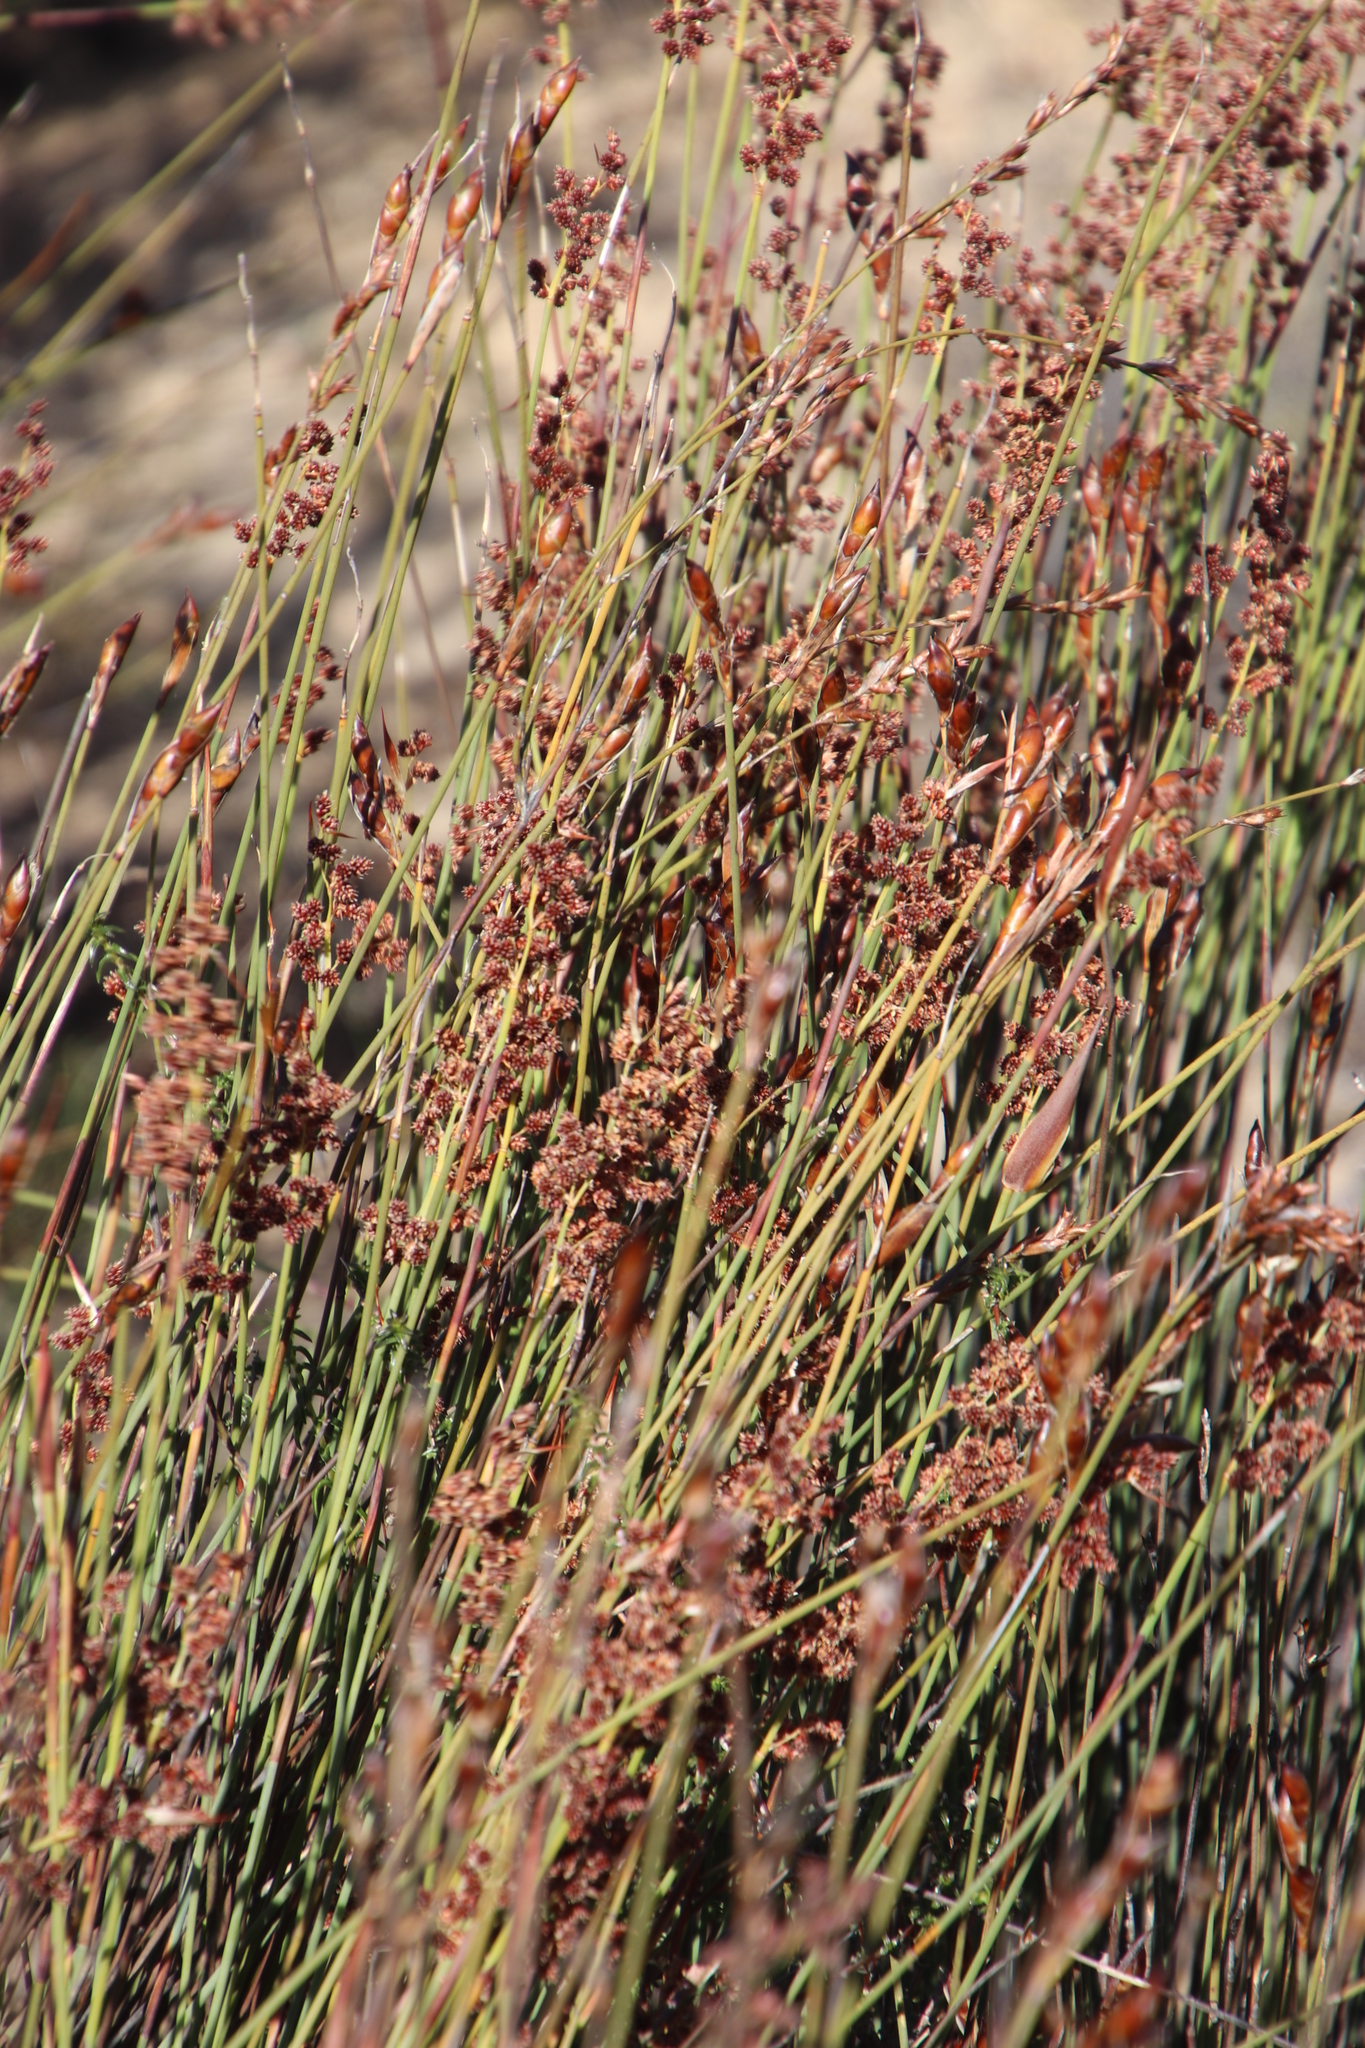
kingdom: Plantae
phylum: Tracheophyta
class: Liliopsida
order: Poales
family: Restionaceae
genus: Cannomois
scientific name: Cannomois parviflora
